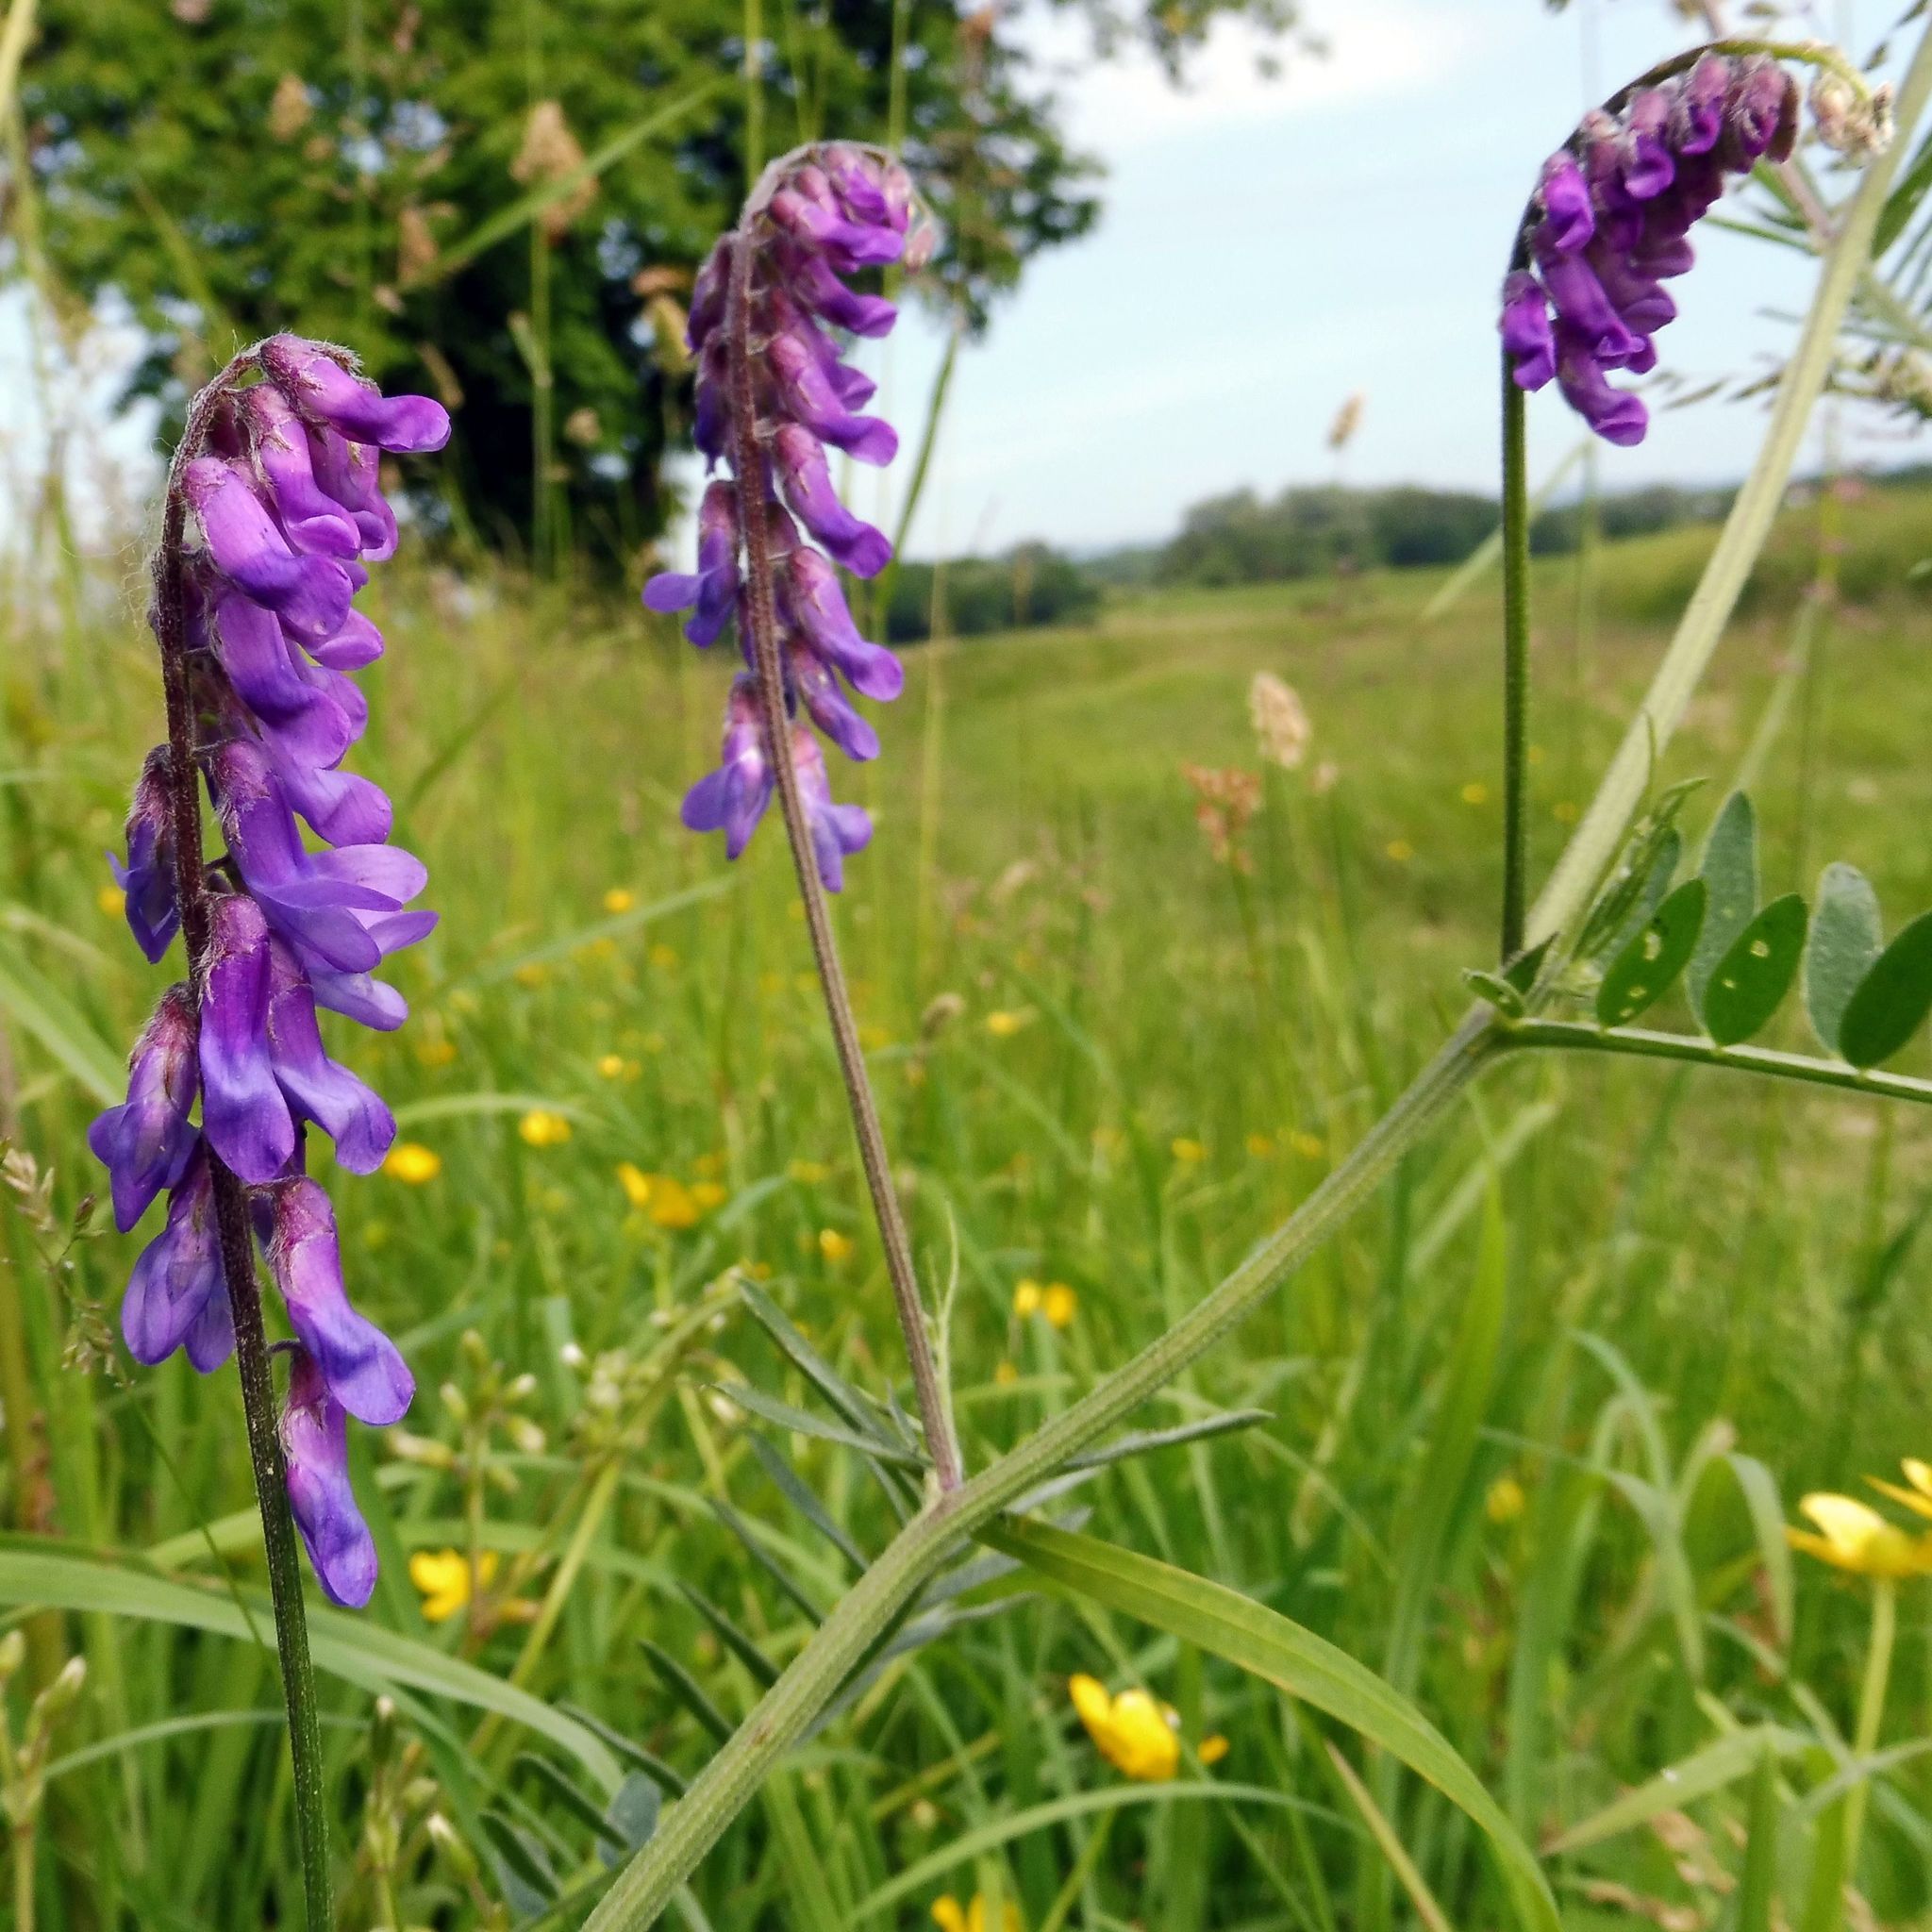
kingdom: Plantae
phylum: Tracheophyta
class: Magnoliopsida
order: Fabales
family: Fabaceae
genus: Vicia
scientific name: Vicia cracca
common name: Bird vetch
